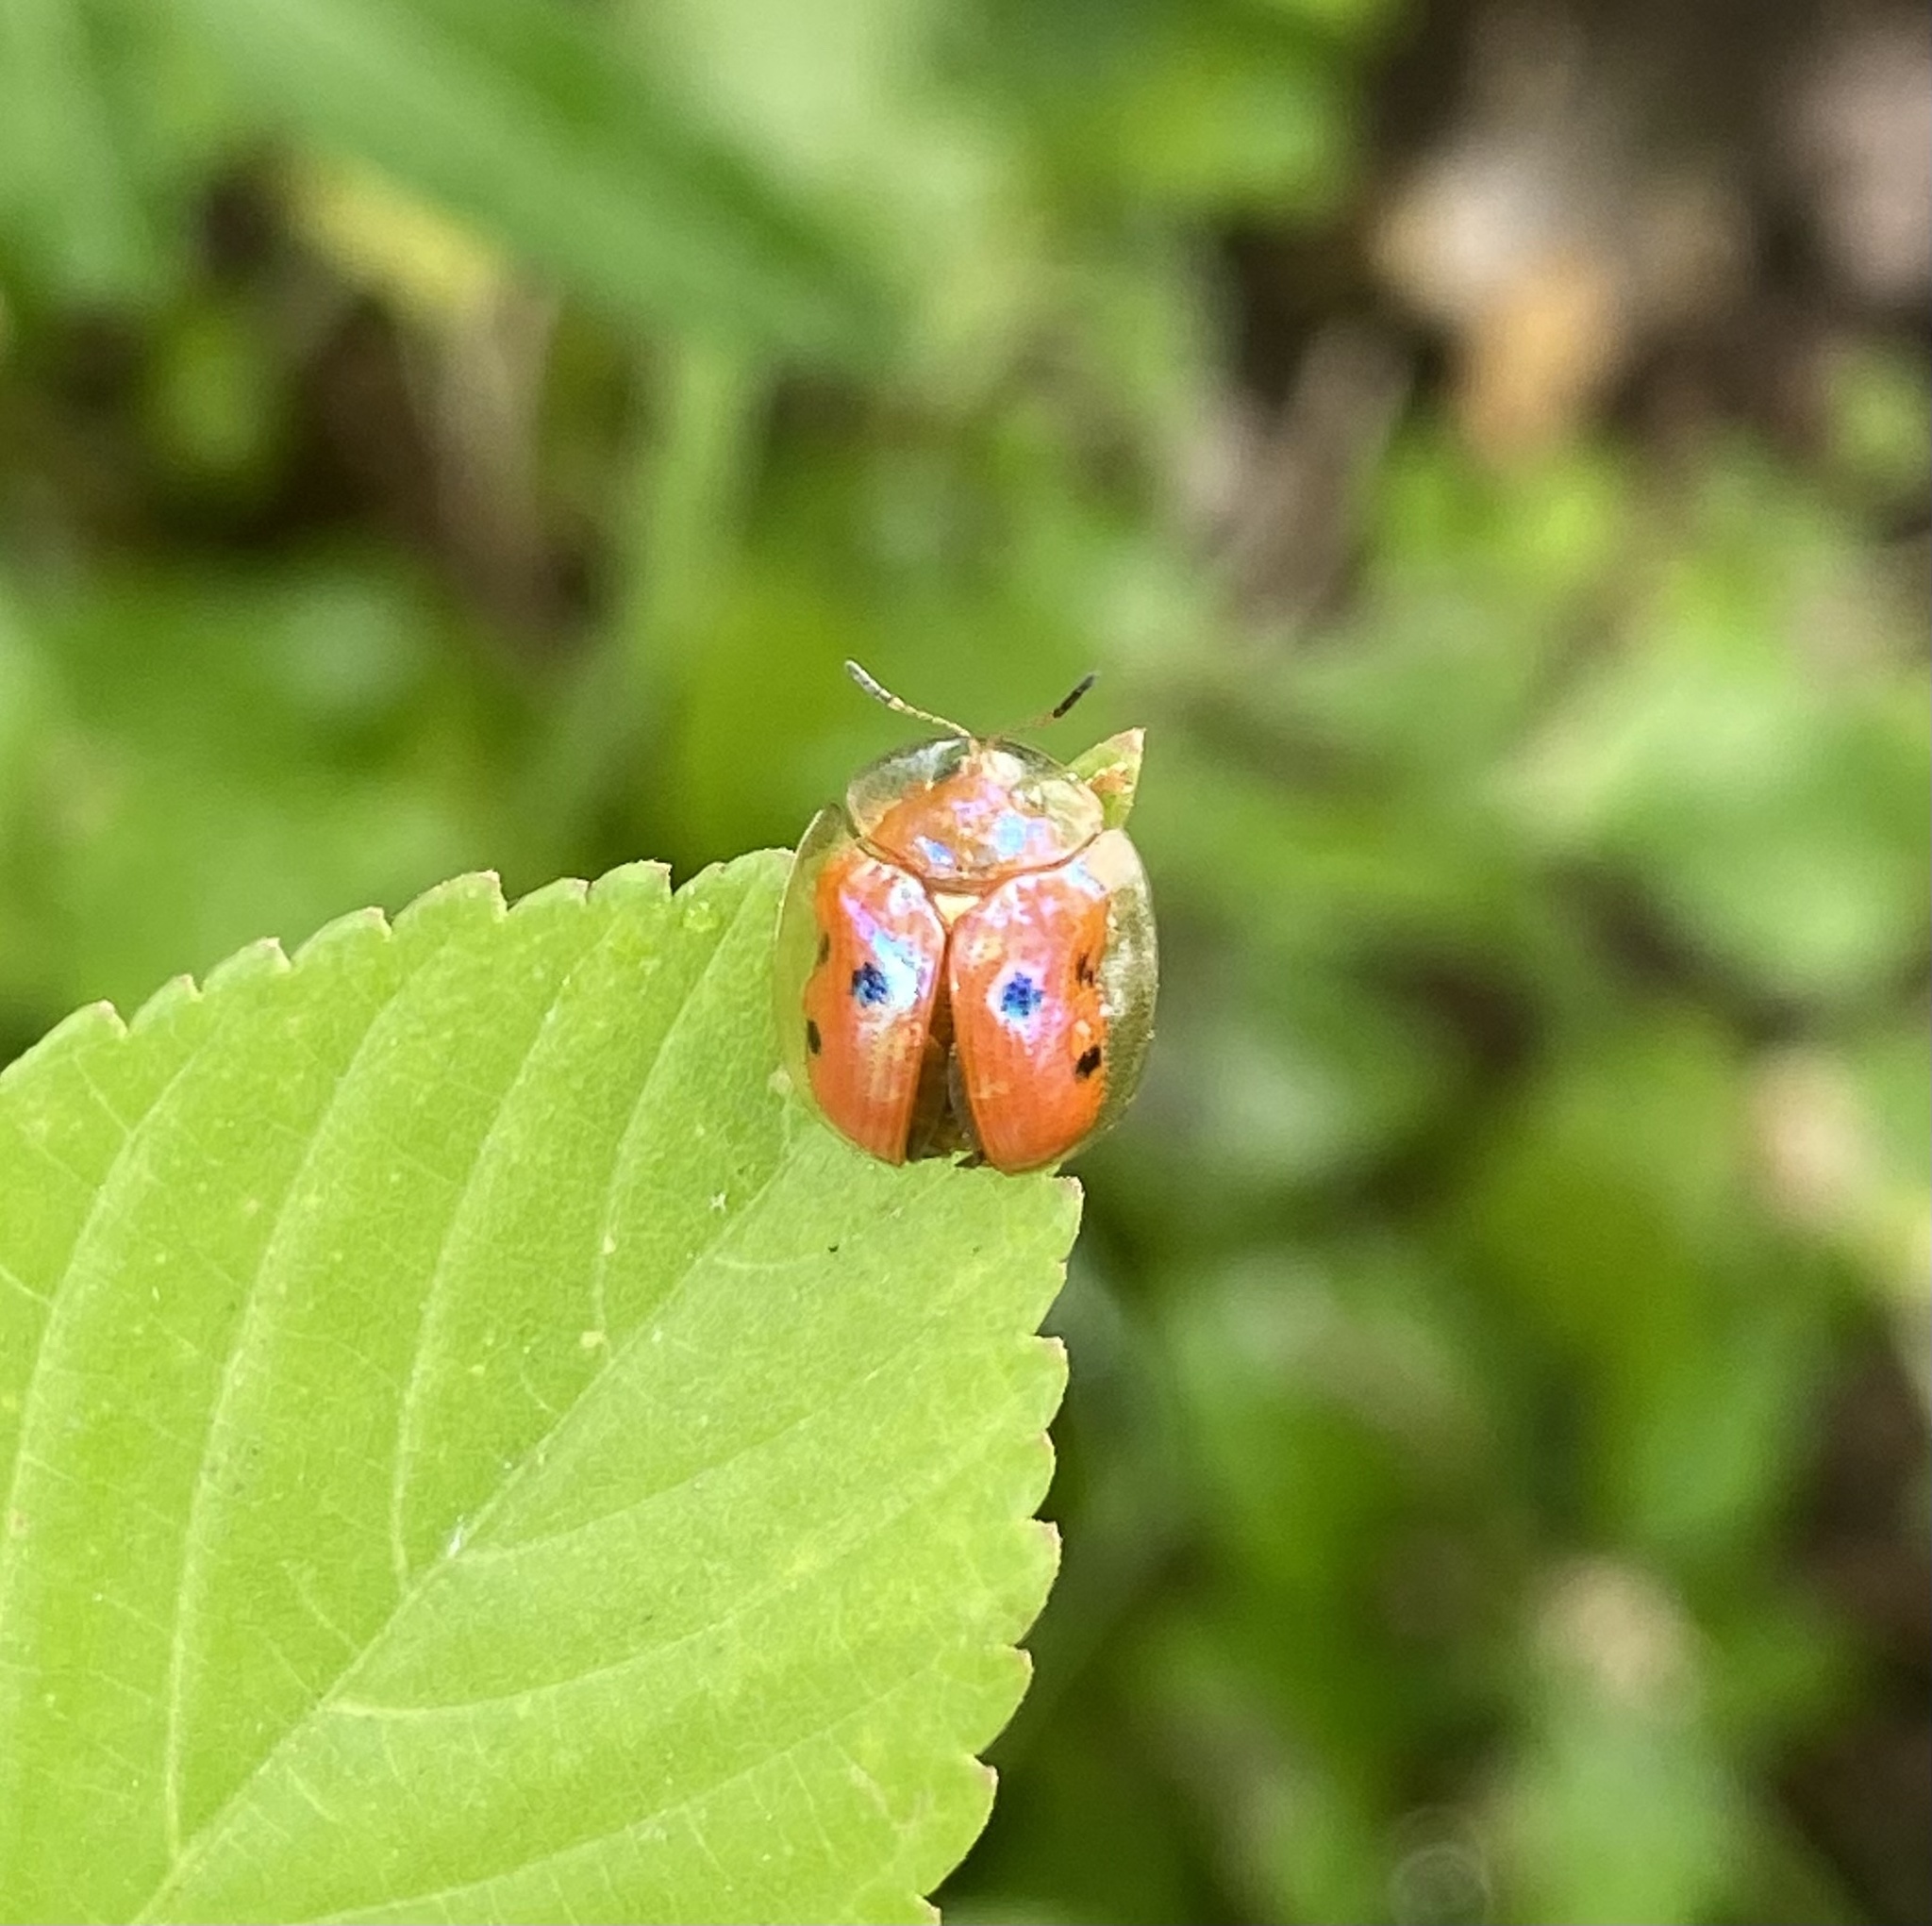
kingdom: Animalia
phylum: Arthropoda
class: Insecta
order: Coleoptera
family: Chrysomelidae
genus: Charidotella
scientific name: Charidotella sexpunctata
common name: Golden tortoise beetle
